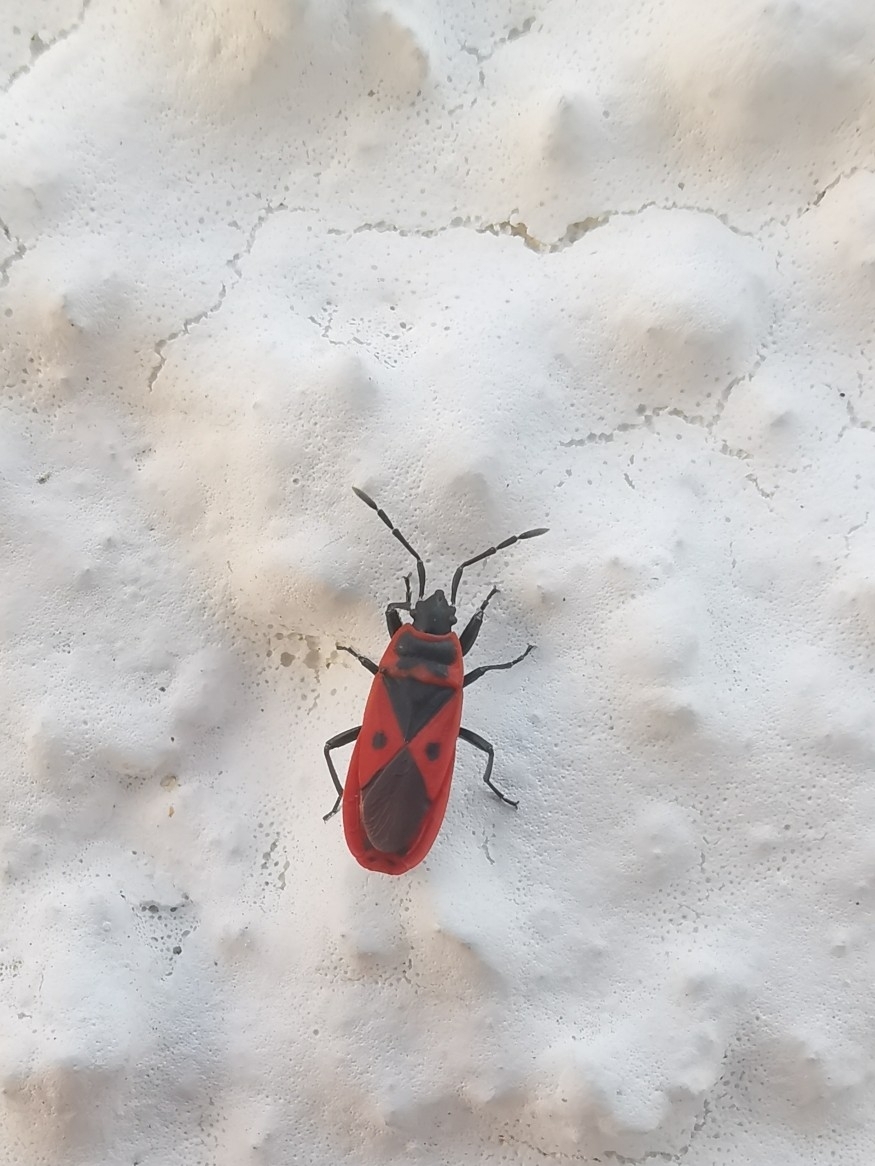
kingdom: Animalia
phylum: Arthropoda
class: Insecta
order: Hemiptera
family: Pyrrhocoridae
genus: Scantius
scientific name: Scantius aegyptius
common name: Red bug
